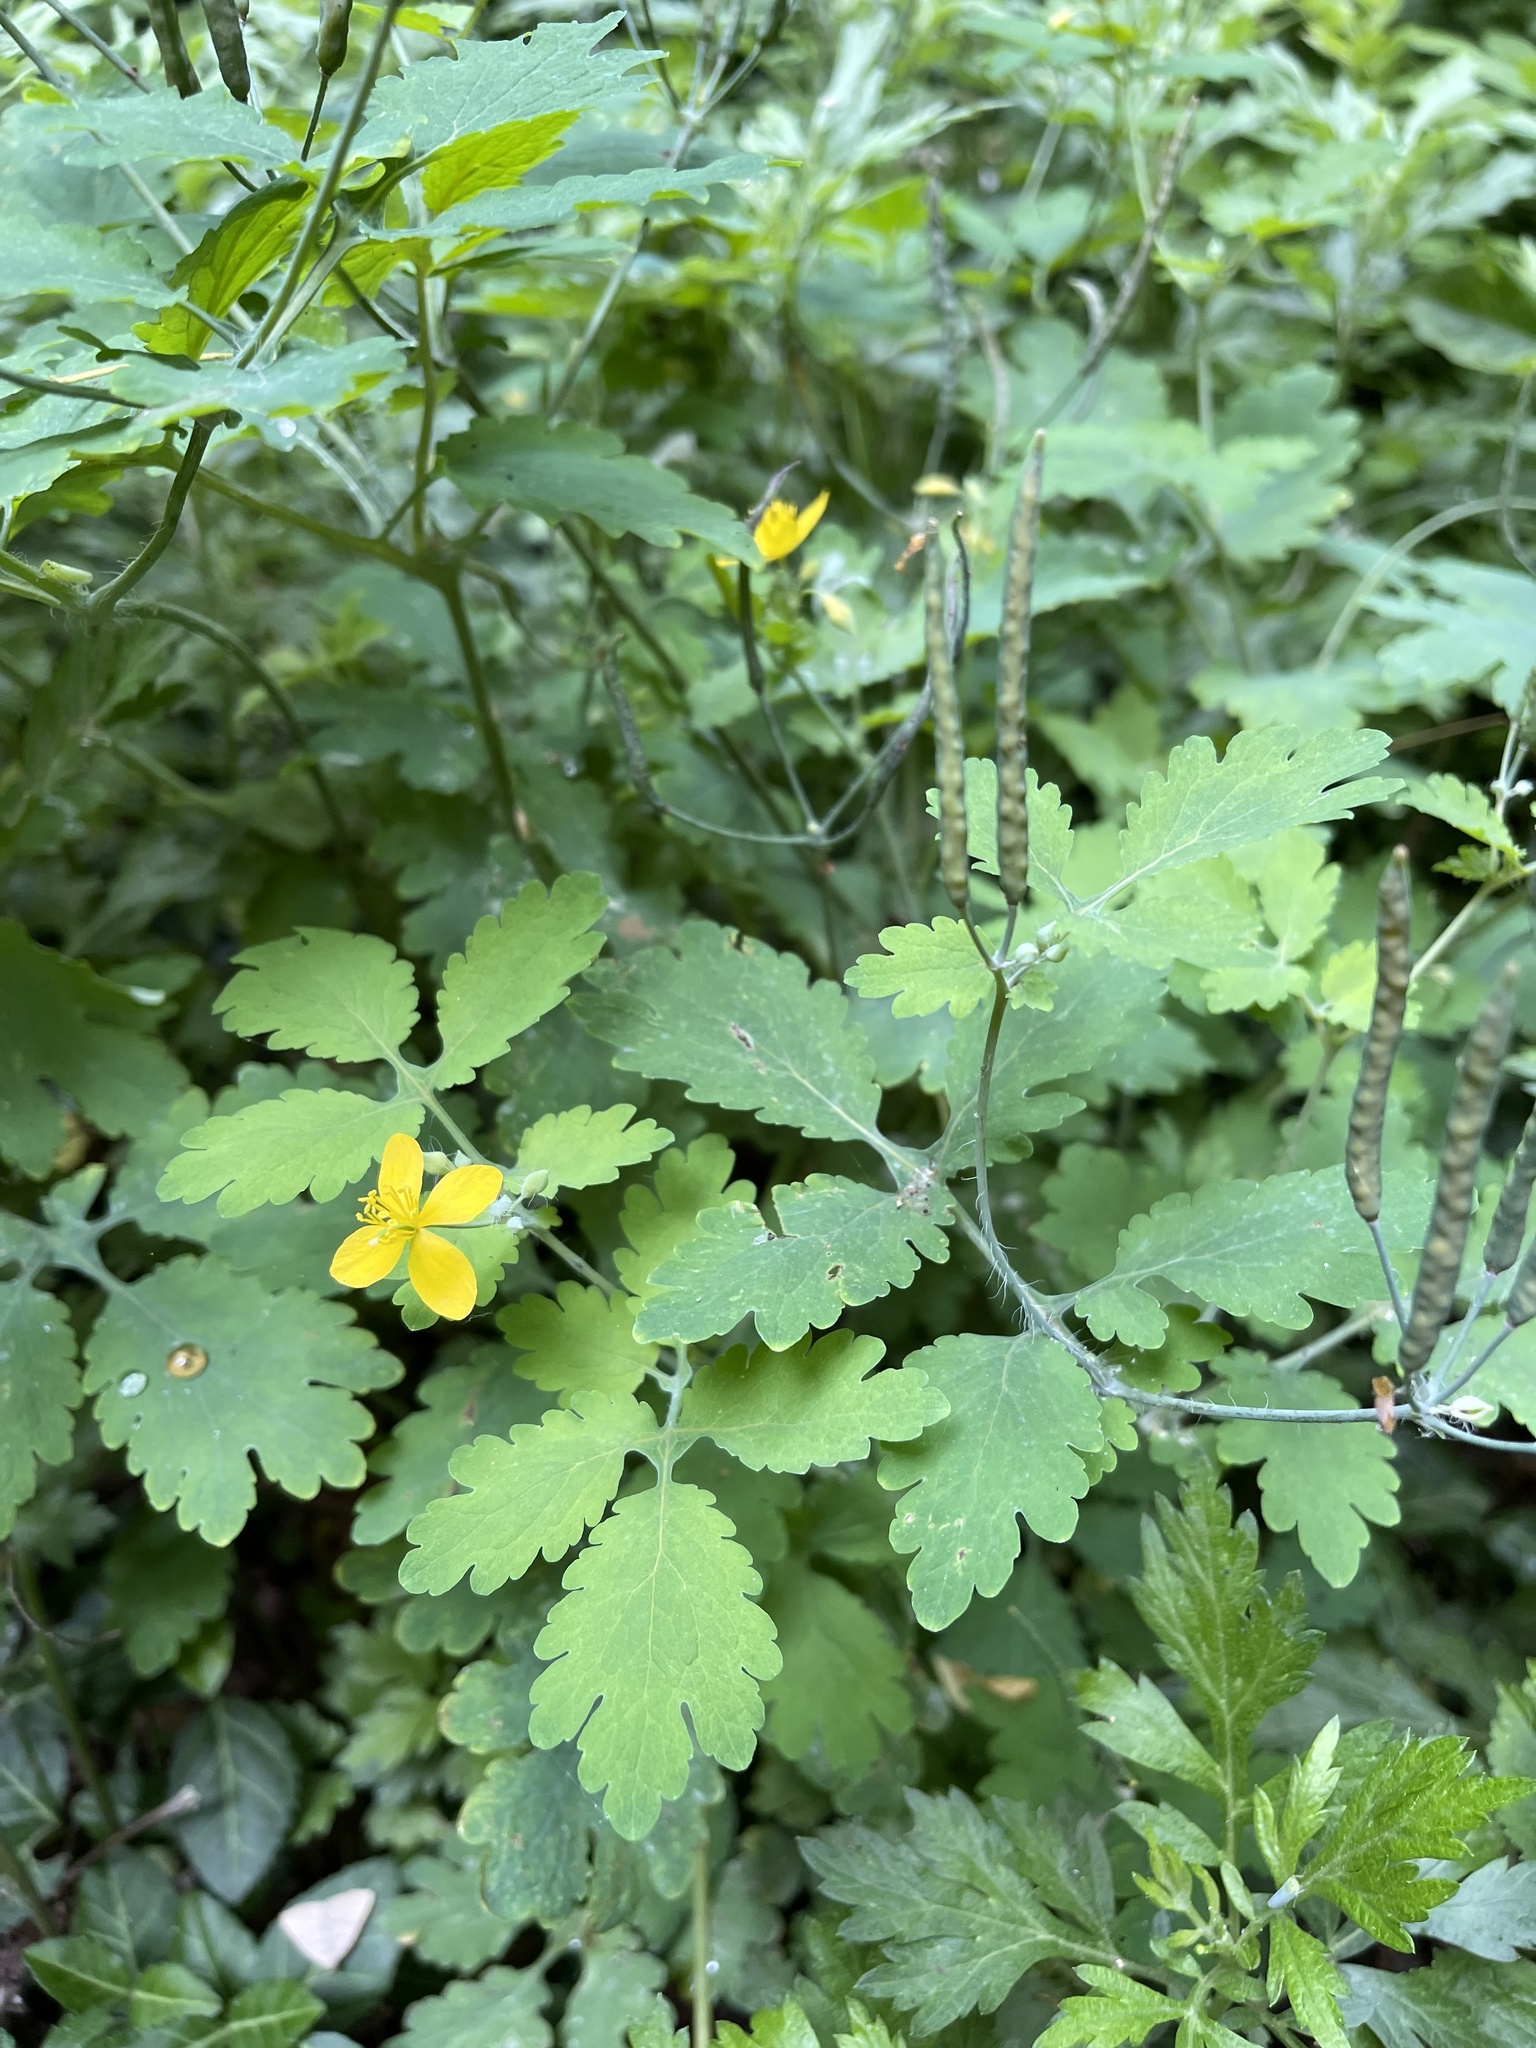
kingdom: Plantae
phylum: Tracheophyta
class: Magnoliopsida
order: Ranunculales
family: Papaveraceae
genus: Chelidonium
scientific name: Chelidonium majus
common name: Greater celandine
